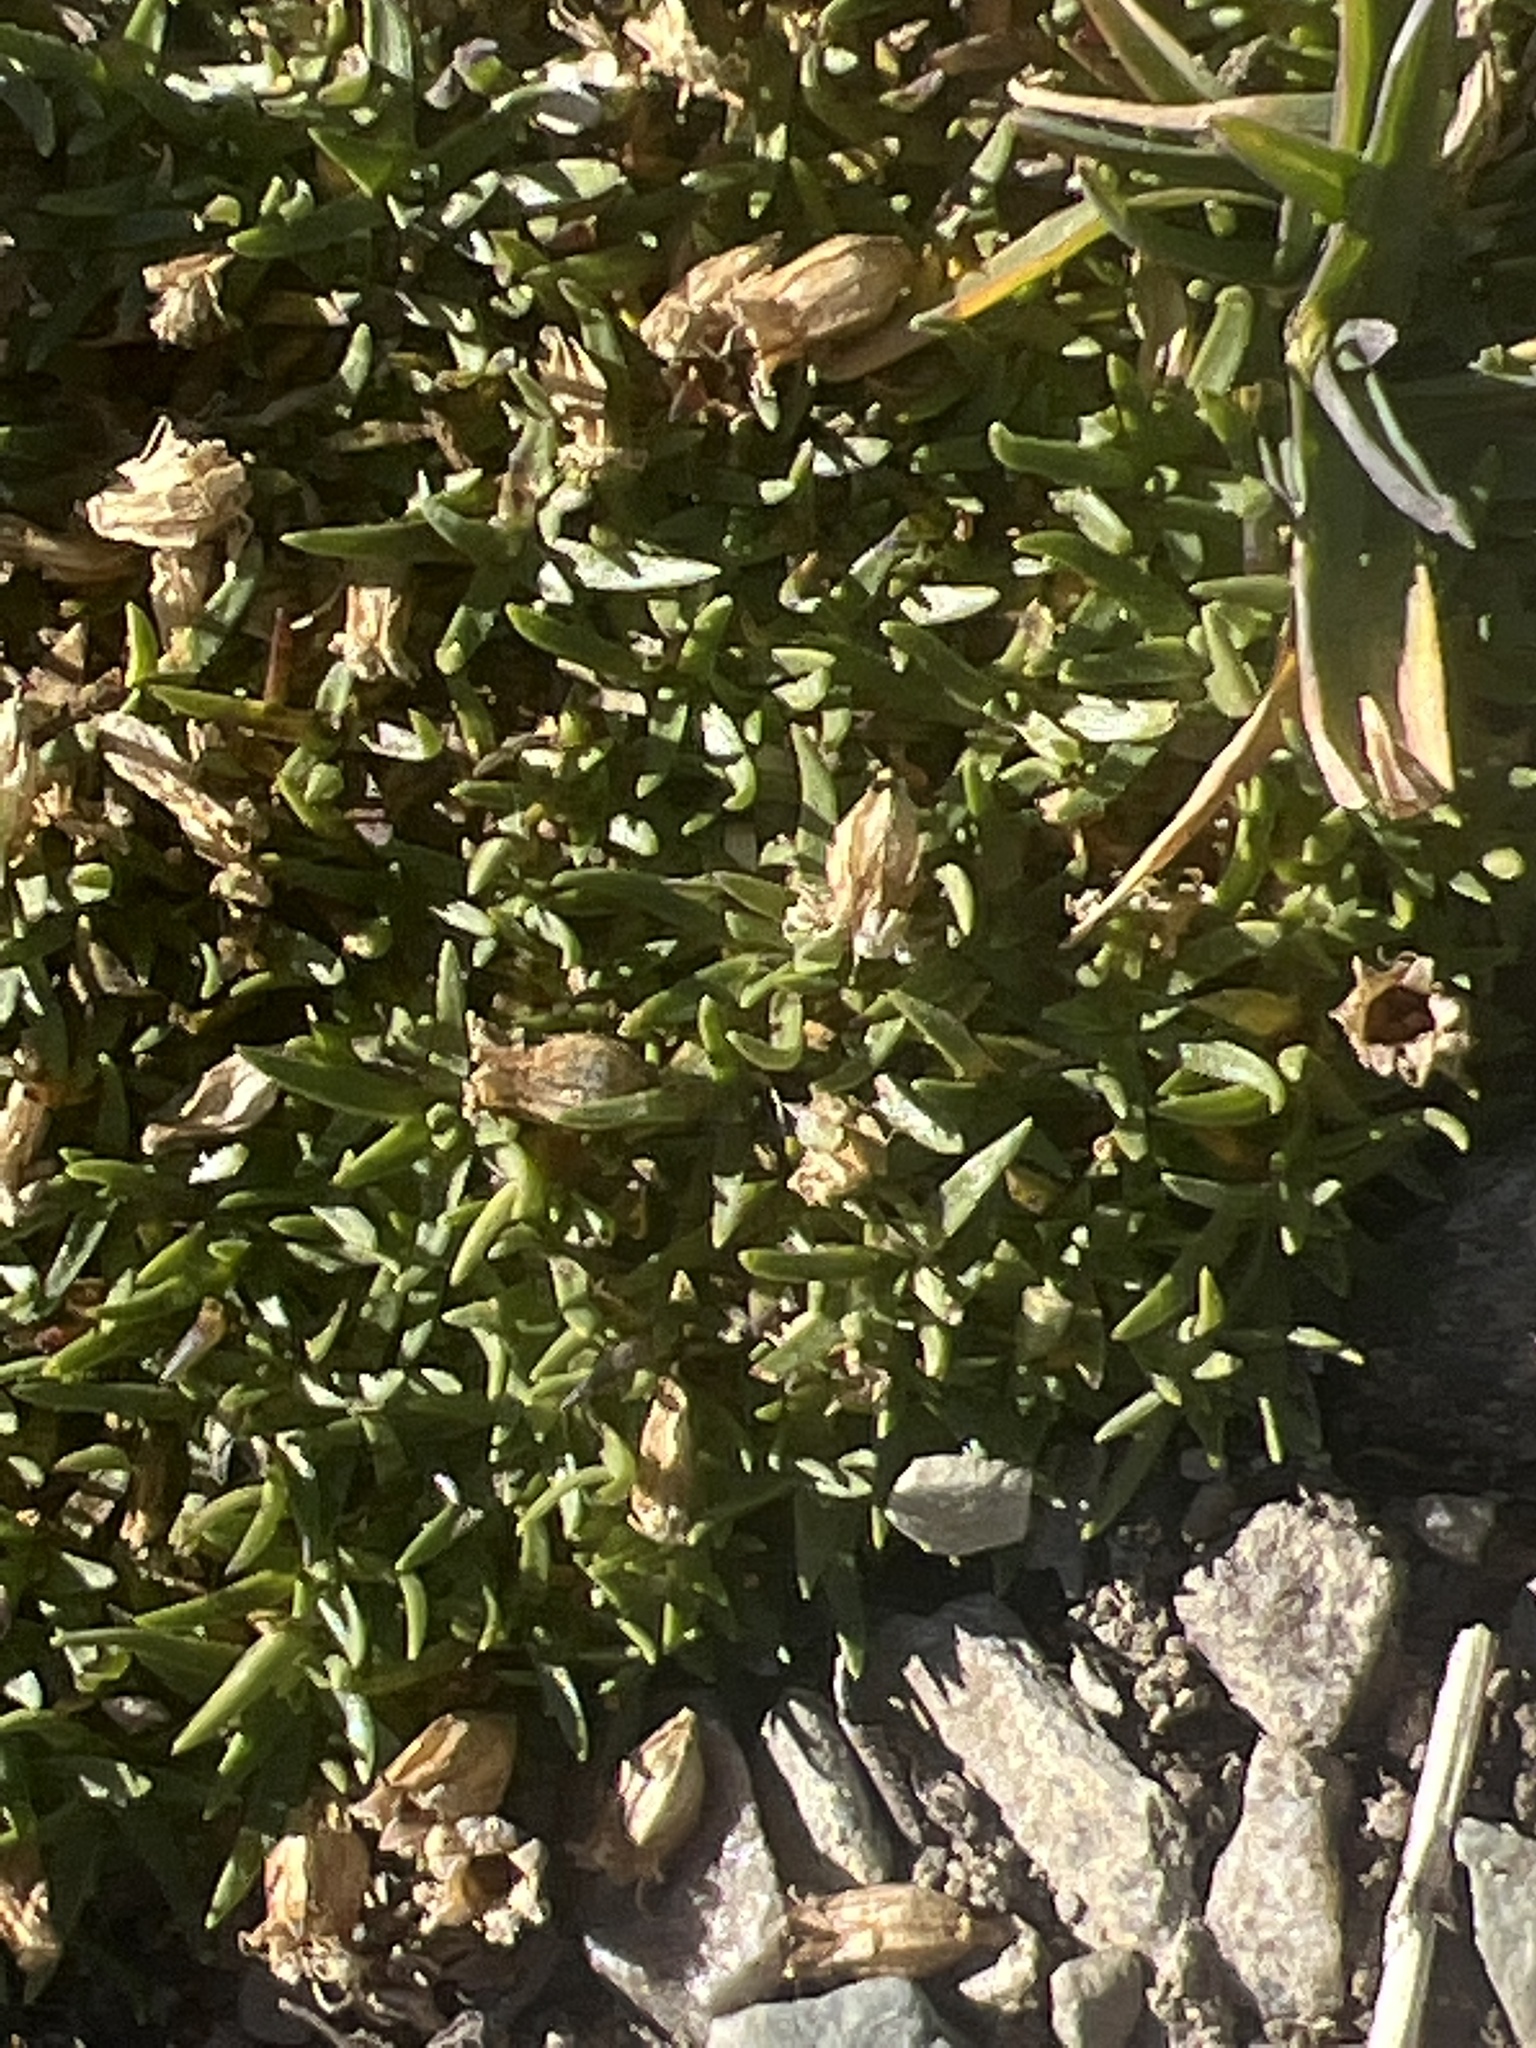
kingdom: Plantae
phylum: Tracheophyta
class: Magnoliopsida
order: Caryophyllales
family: Caryophyllaceae
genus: Silene
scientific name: Silene acaulis
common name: Moss campion
